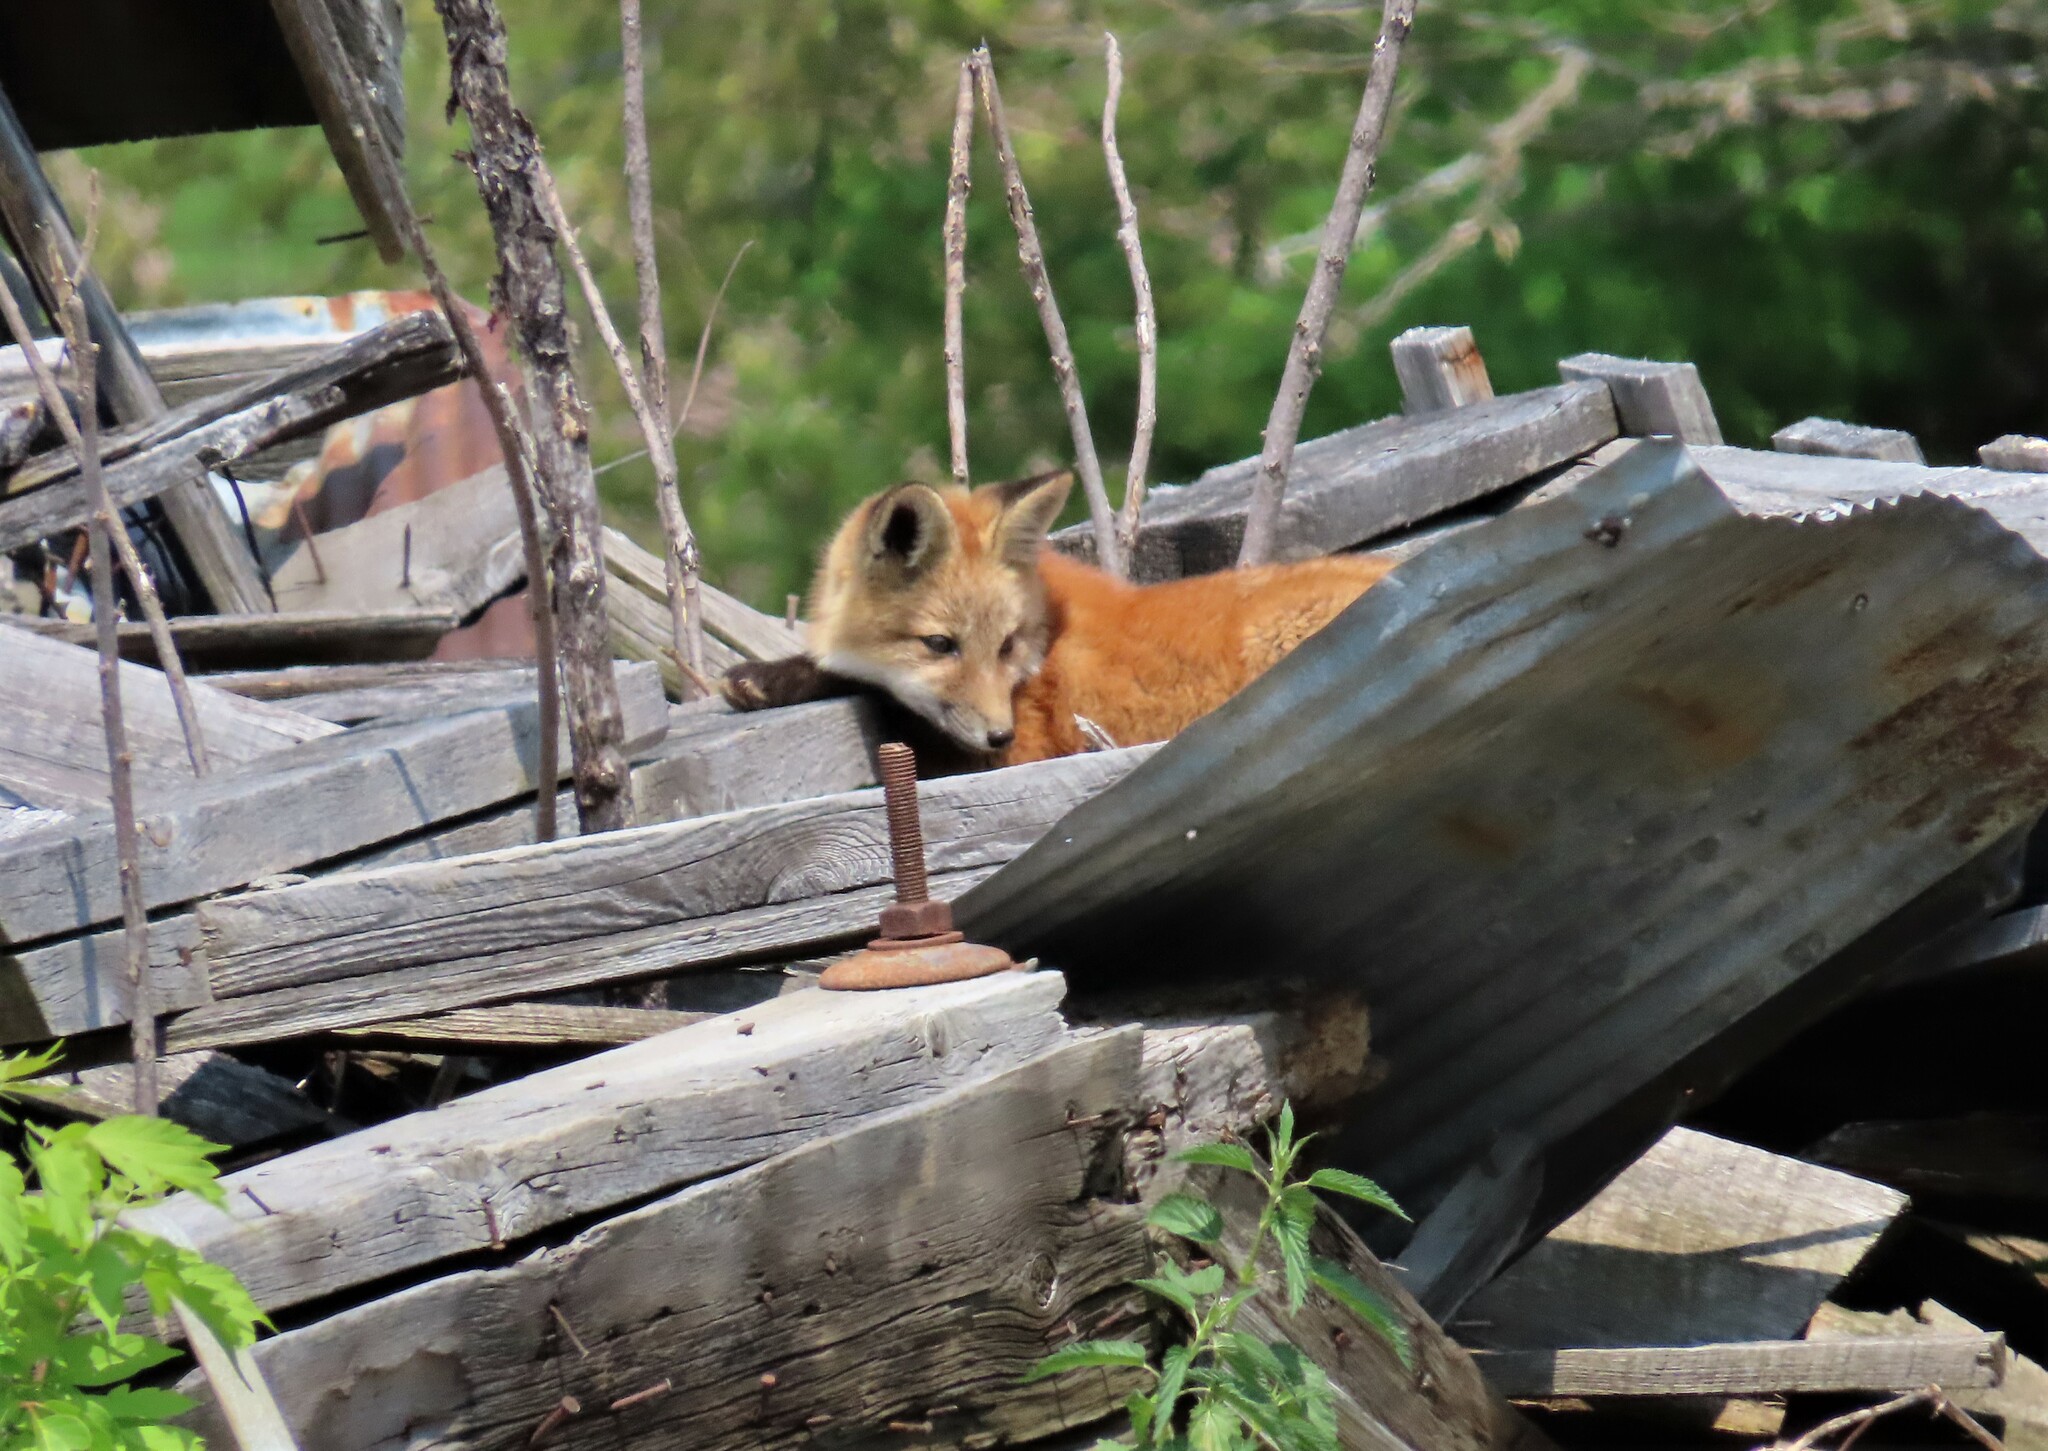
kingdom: Animalia
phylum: Chordata
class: Mammalia
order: Carnivora
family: Canidae
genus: Vulpes
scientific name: Vulpes vulpes
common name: Red fox
